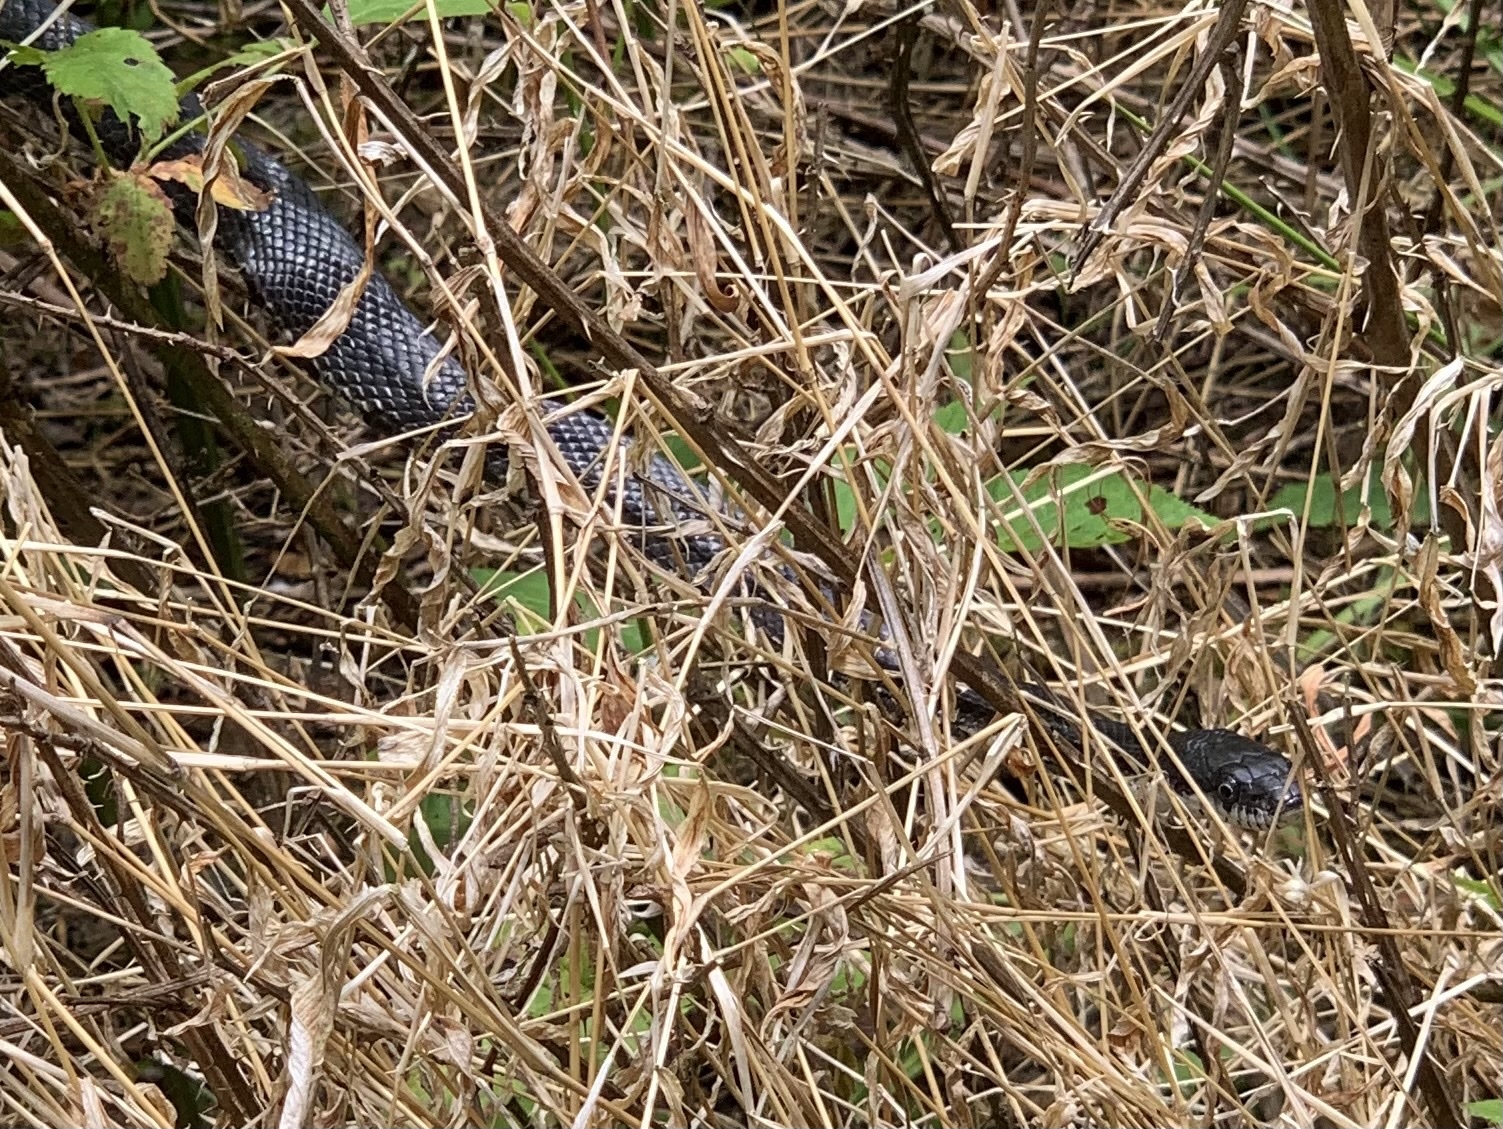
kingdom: Animalia
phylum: Chordata
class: Squamata
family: Colubridae
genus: Pantherophis
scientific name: Pantherophis alleghaniensis
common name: Eastern rat snake
